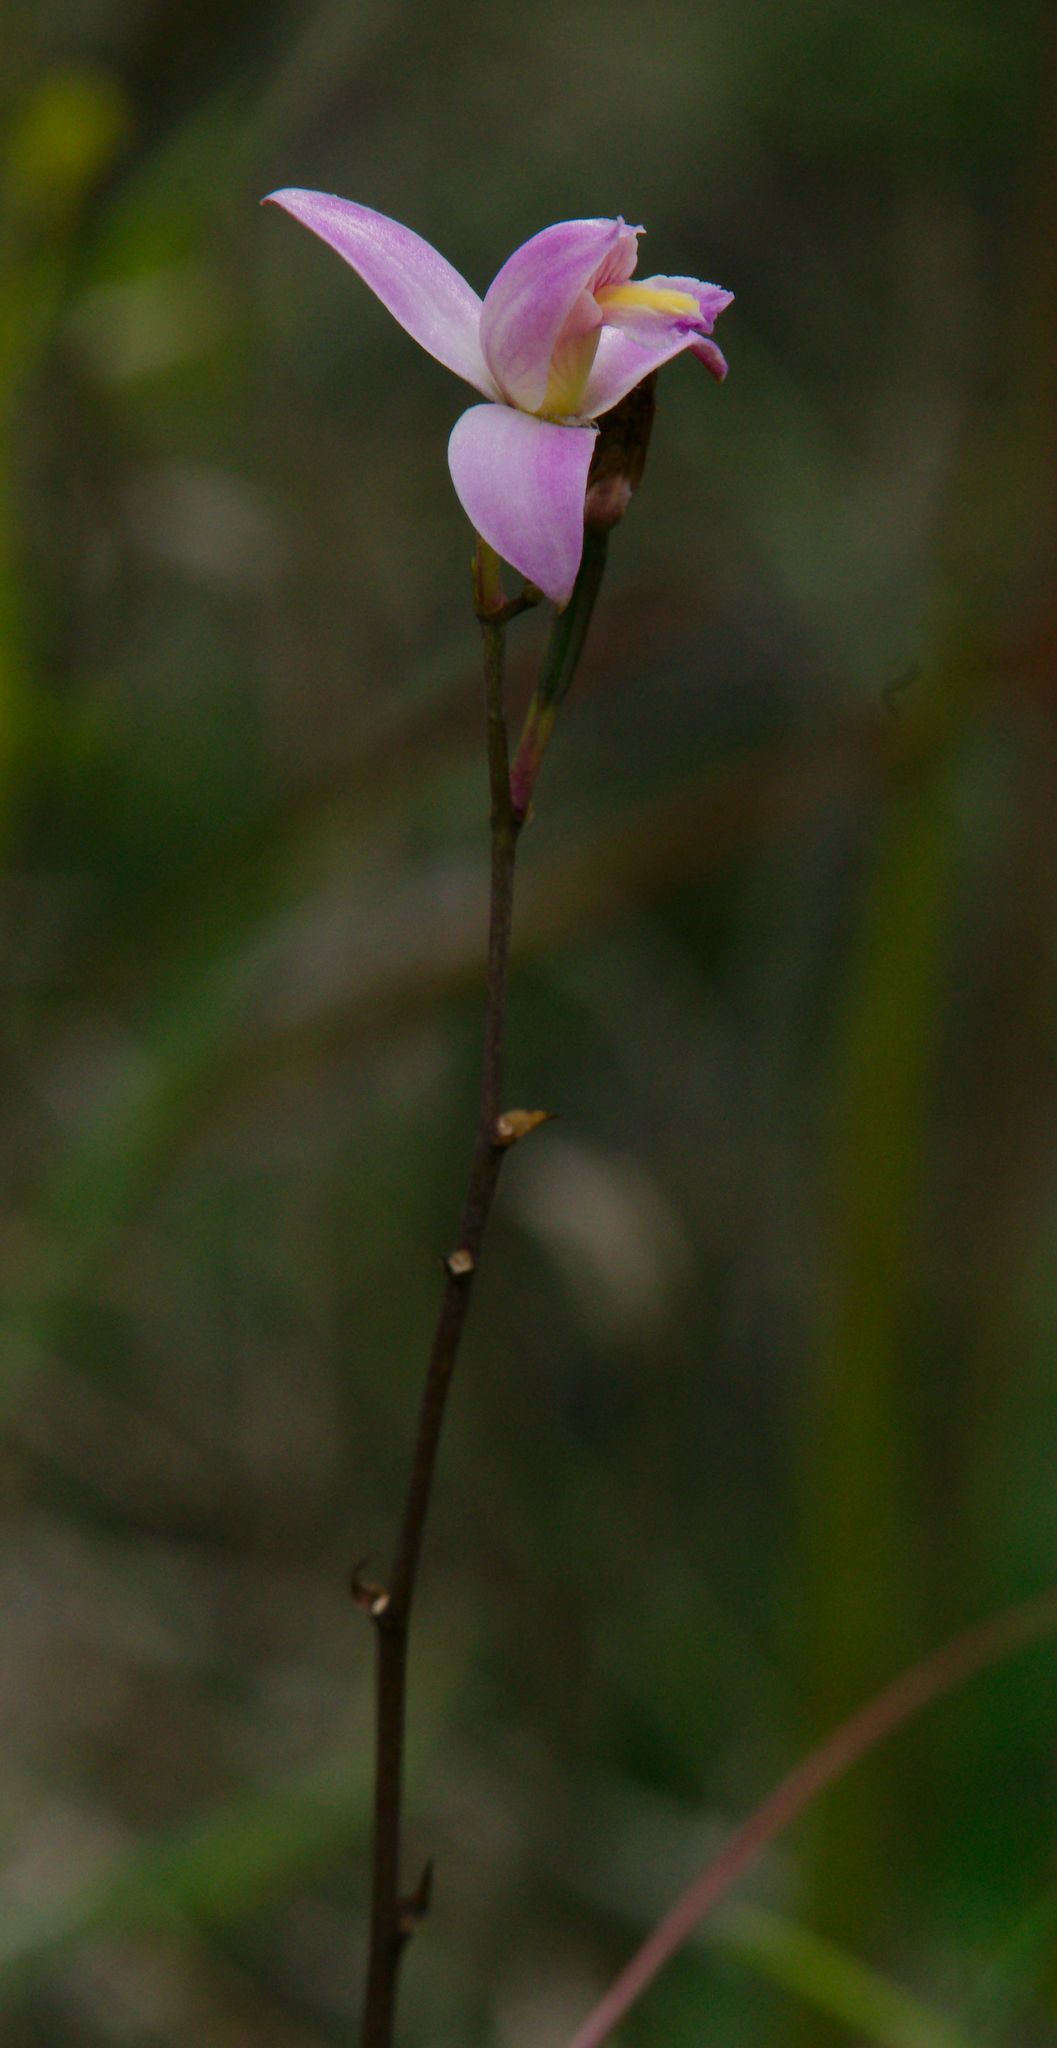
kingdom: Plantae
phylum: Tracheophyta
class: Liliopsida
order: Asparagales
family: Orchidaceae
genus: Bletia
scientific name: Bletia purpurea
